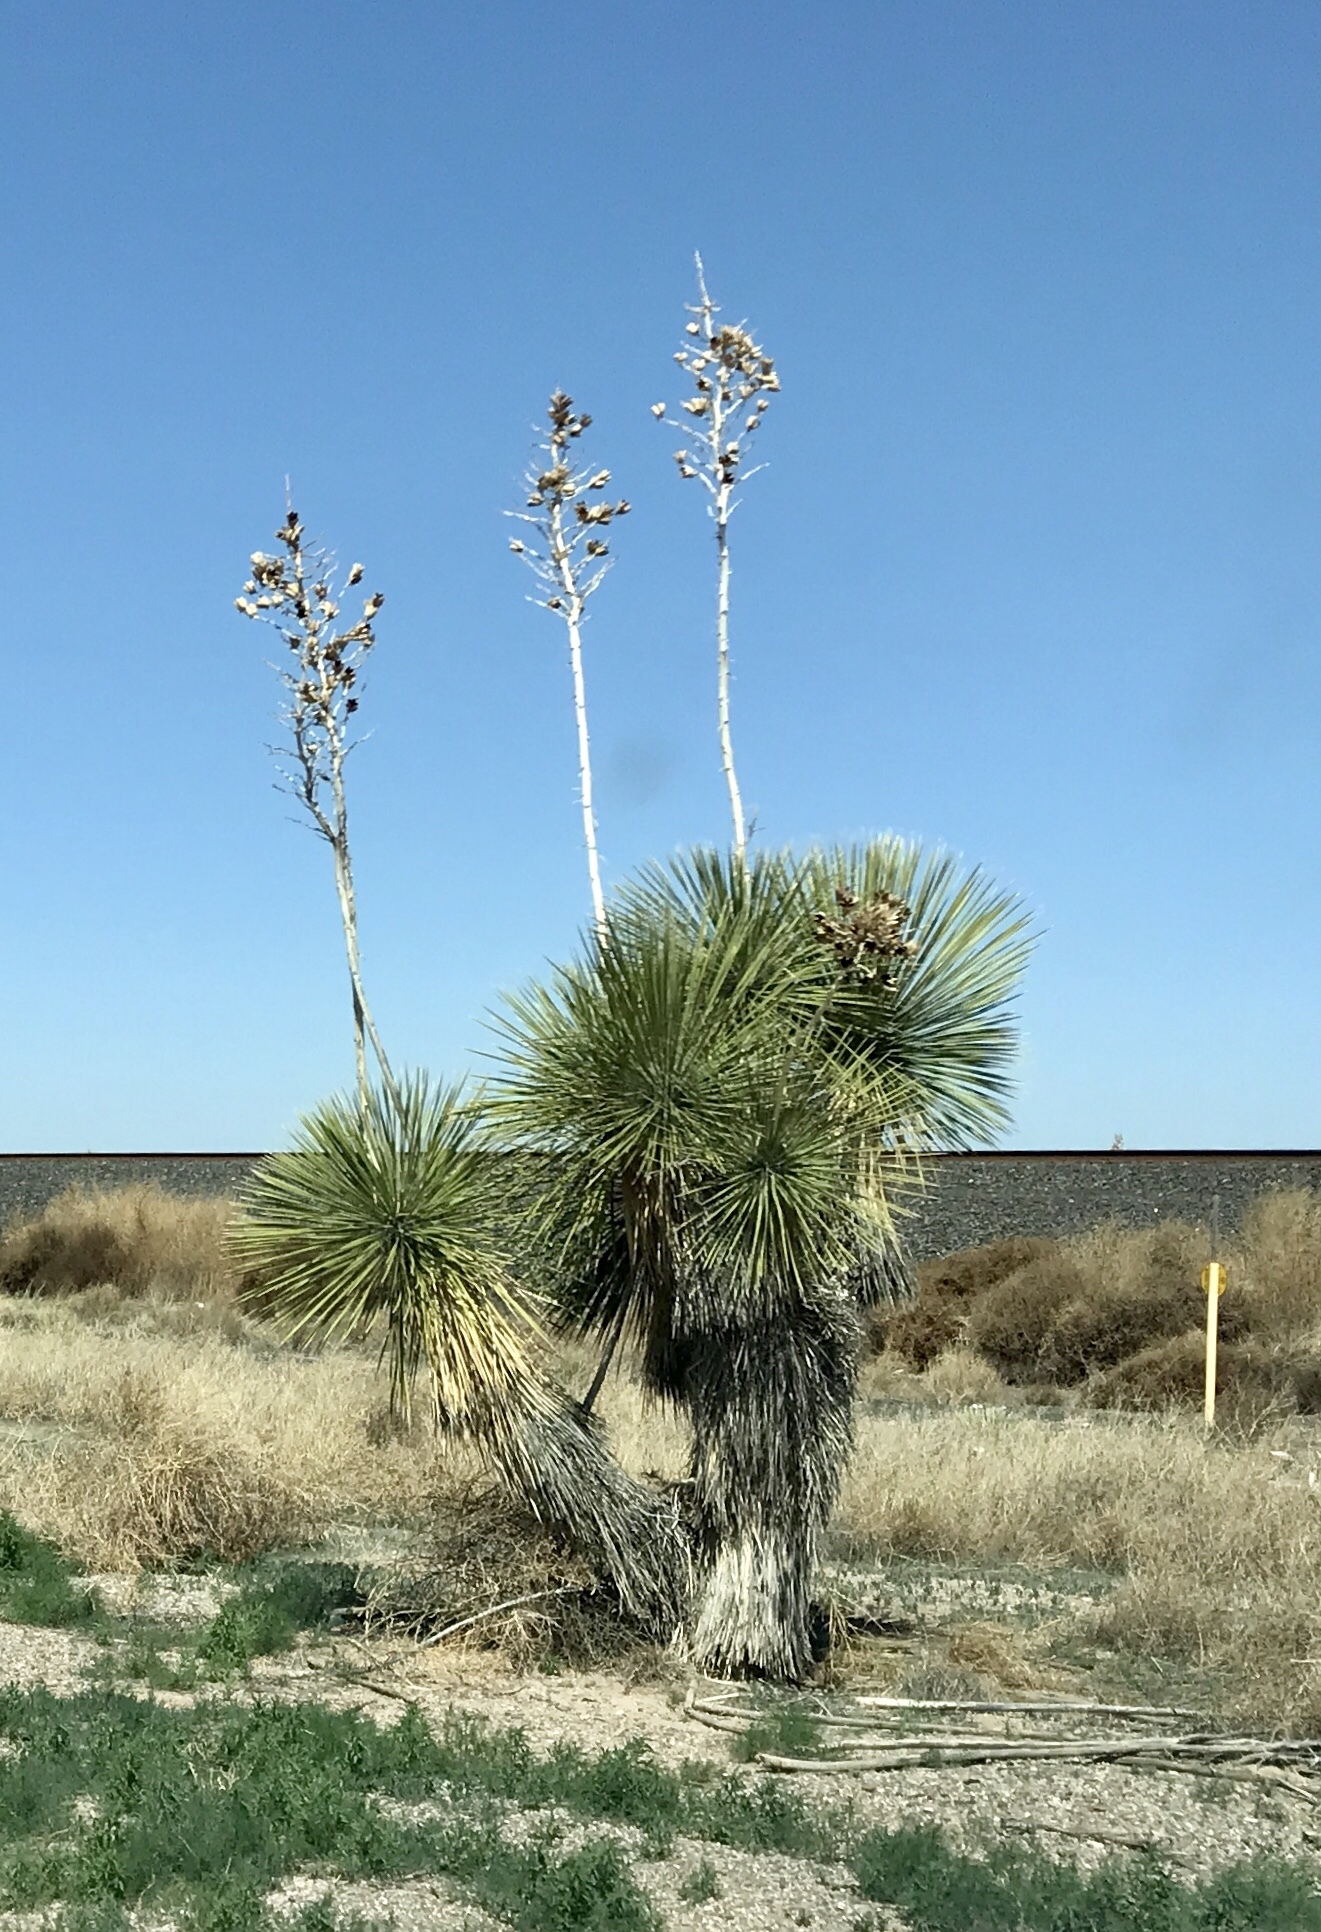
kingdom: Plantae
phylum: Tracheophyta
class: Liliopsida
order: Asparagales
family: Asparagaceae
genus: Yucca
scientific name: Yucca elata
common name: Palmella
